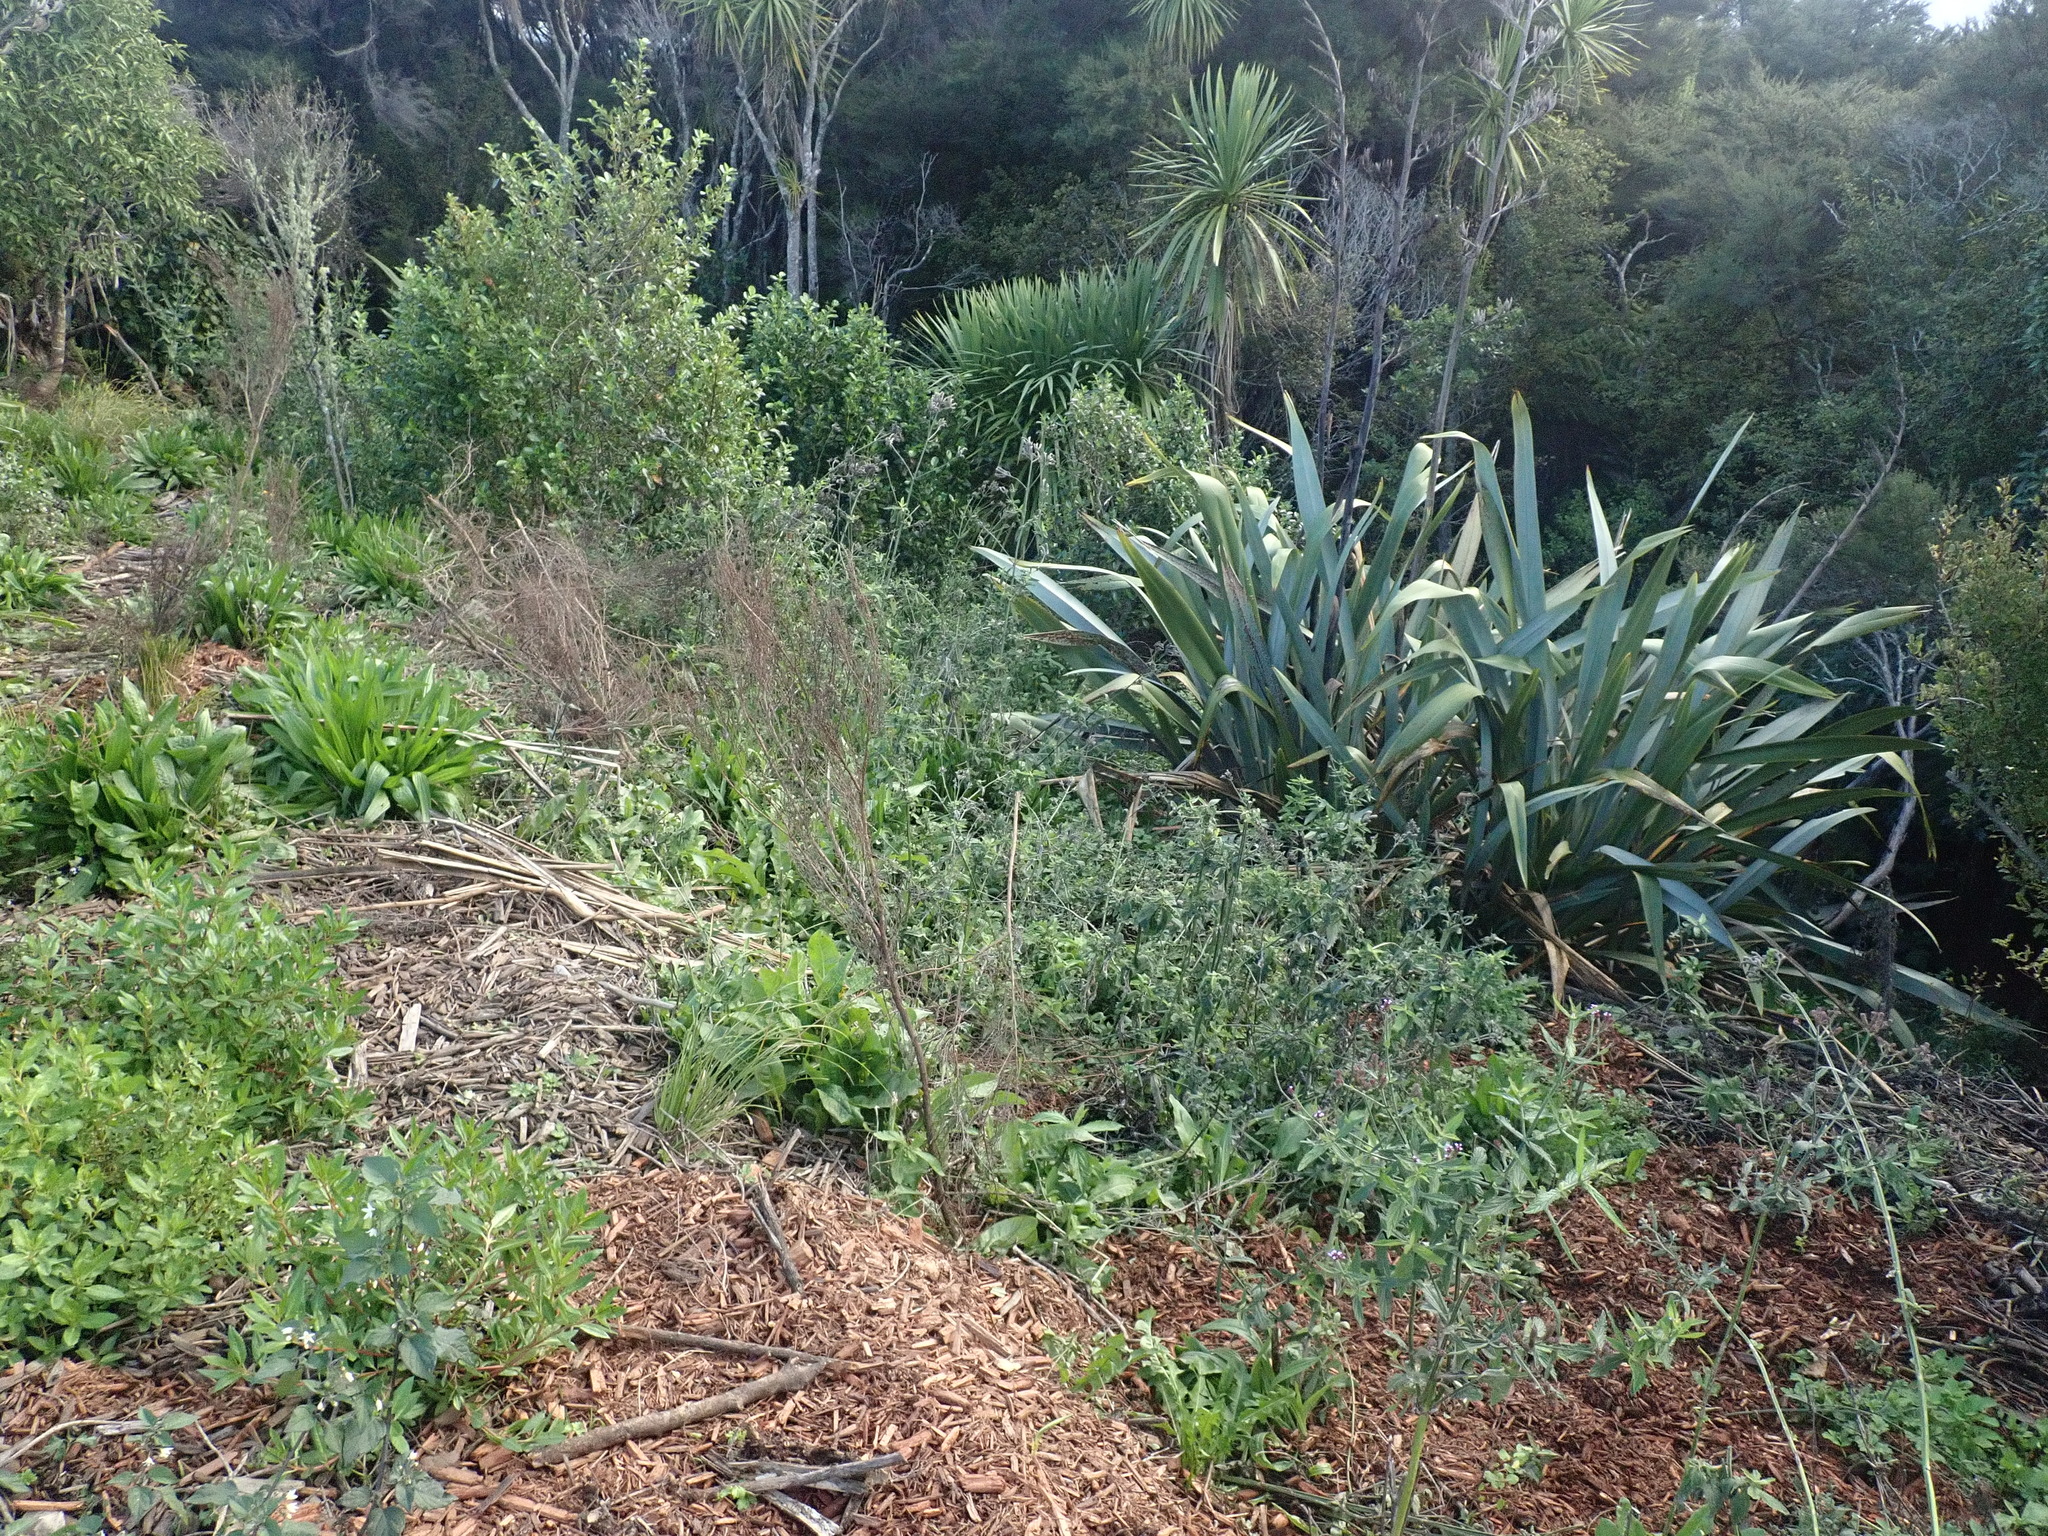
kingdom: Plantae
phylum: Tracheophyta
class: Magnoliopsida
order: Saxifragales
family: Haloragaceae
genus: Haloragis
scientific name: Haloragis erecta
